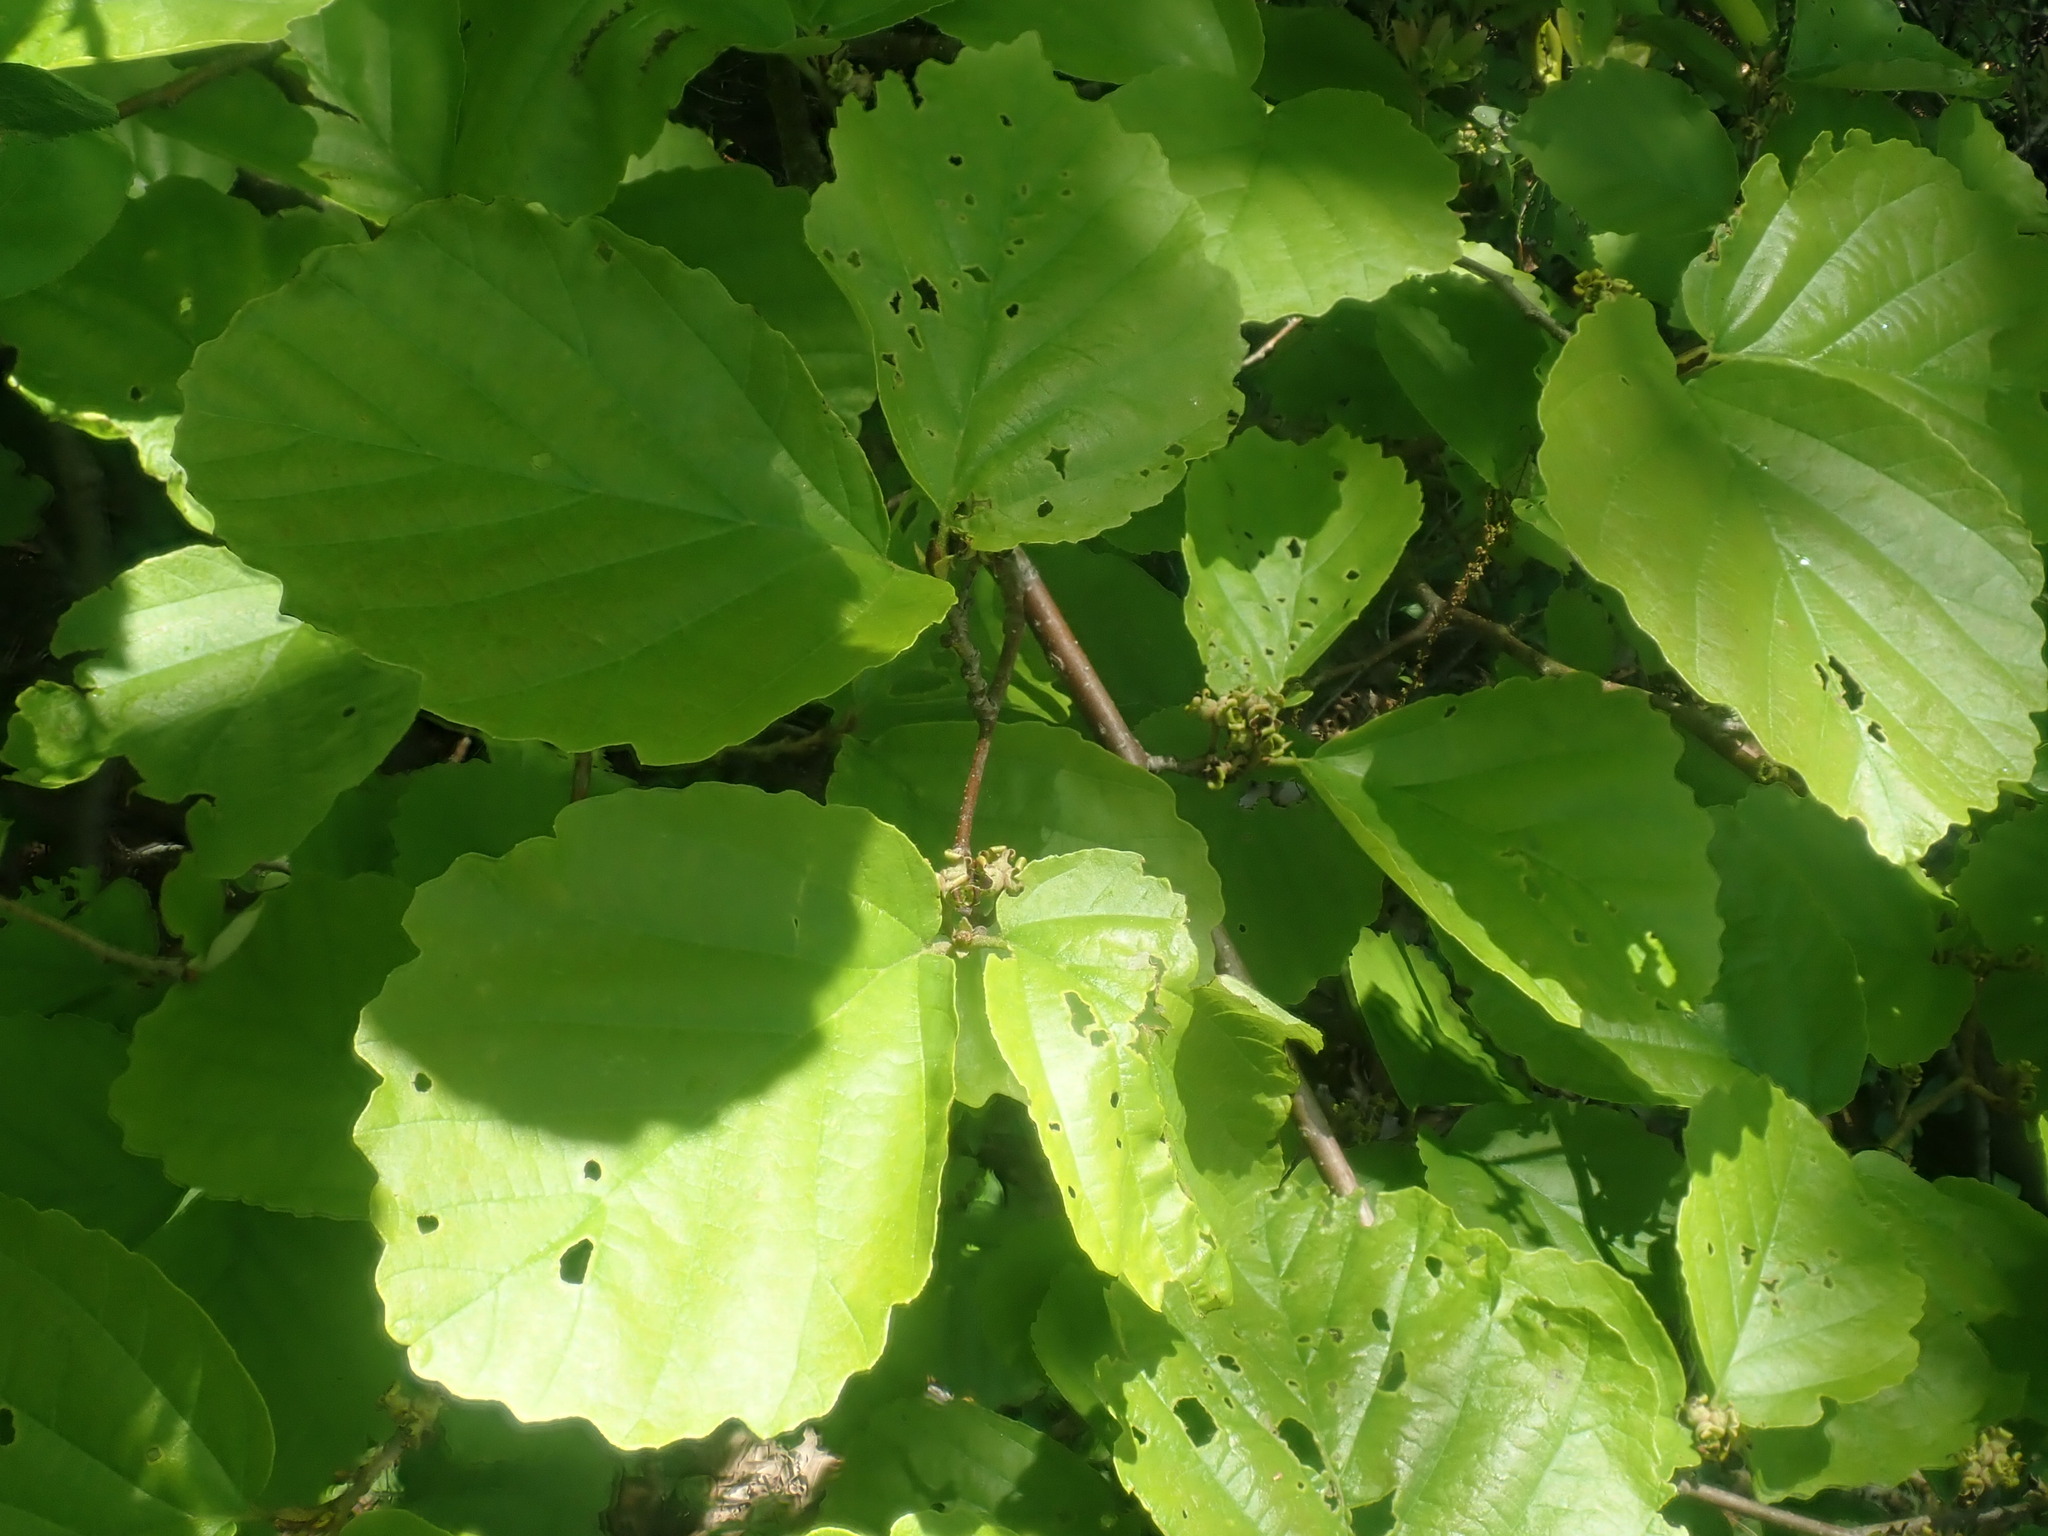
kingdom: Plantae
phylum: Tracheophyta
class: Magnoliopsida
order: Saxifragales
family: Hamamelidaceae
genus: Hamamelis
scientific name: Hamamelis virginiana
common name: Witch-hazel
